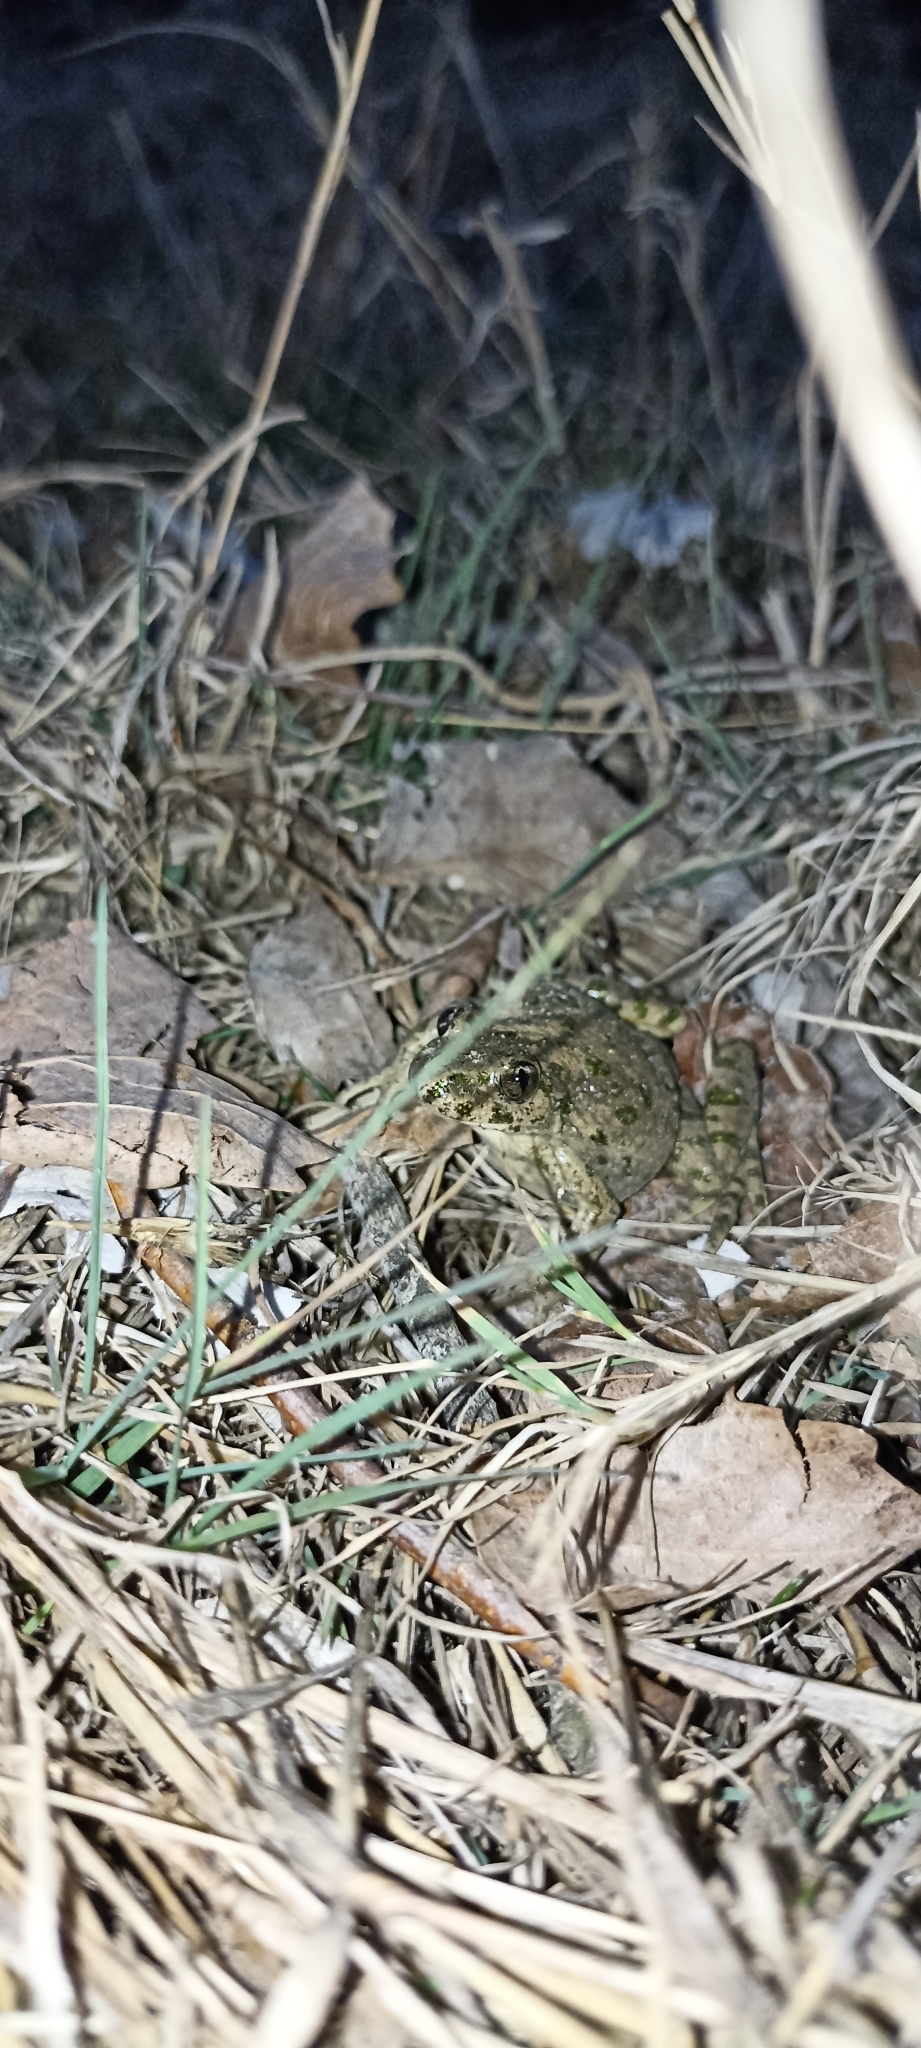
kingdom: Animalia
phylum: Chordata
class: Amphibia
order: Anura
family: Pelodytidae
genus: Pelodytes
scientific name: Pelodytes punctatus
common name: Parsley frog
